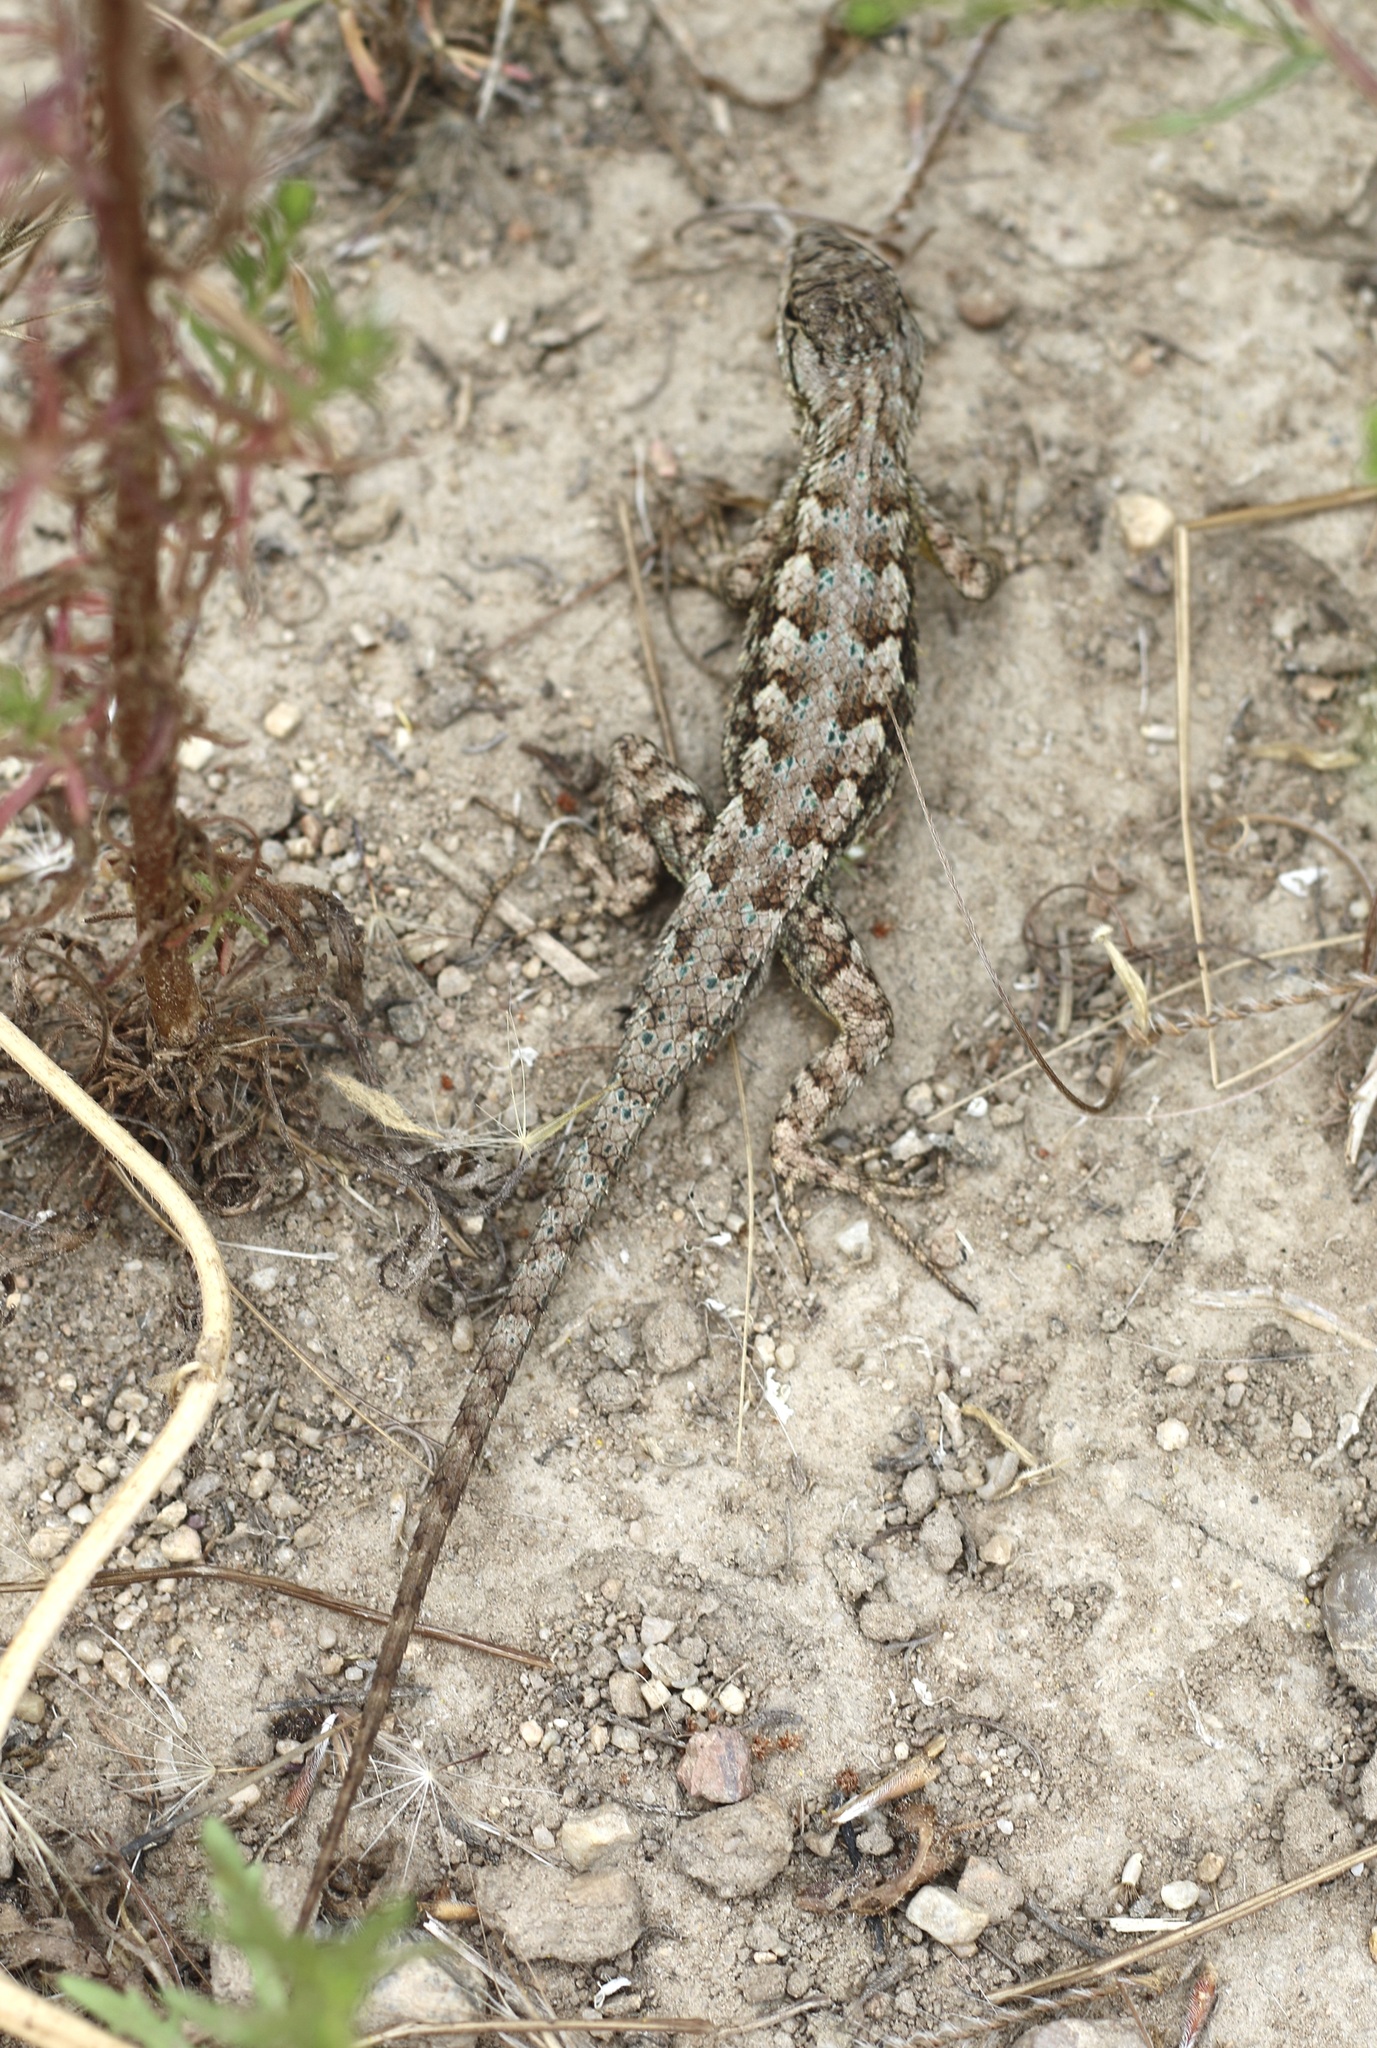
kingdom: Animalia
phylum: Chordata
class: Squamata
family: Phrynosomatidae
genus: Sceloporus
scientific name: Sceloporus occidentalis
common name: Western fence lizard
